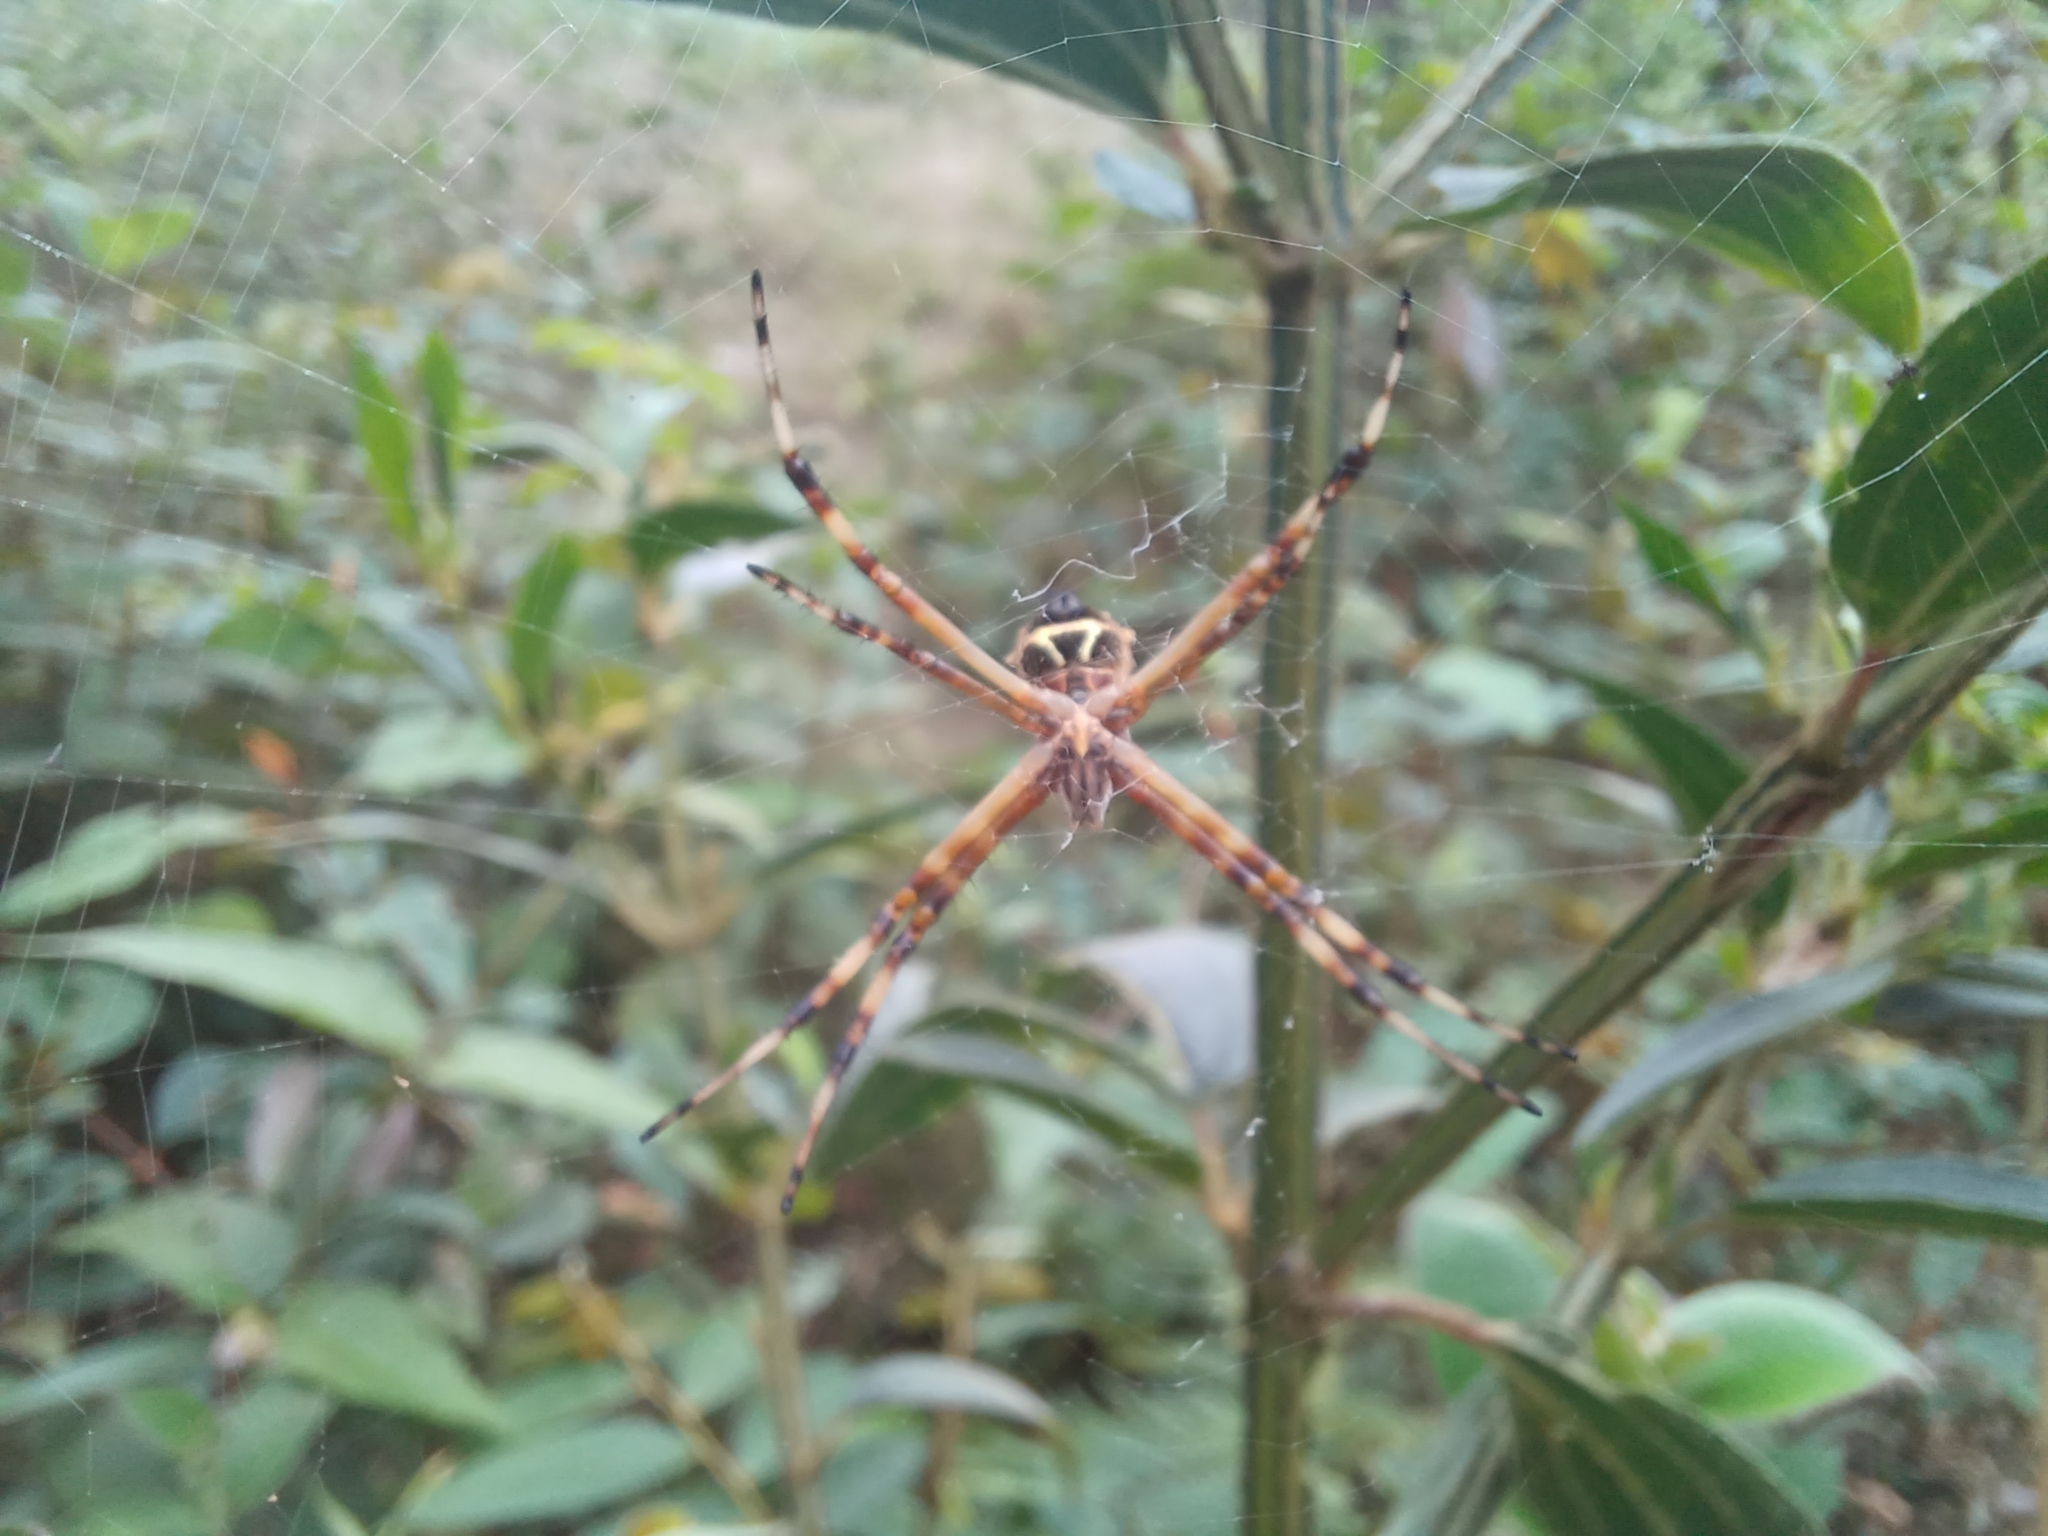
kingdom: Animalia
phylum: Arthropoda
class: Arachnida
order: Araneae
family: Araneidae
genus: Argiope
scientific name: Argiope argentata
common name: Orb weavers
